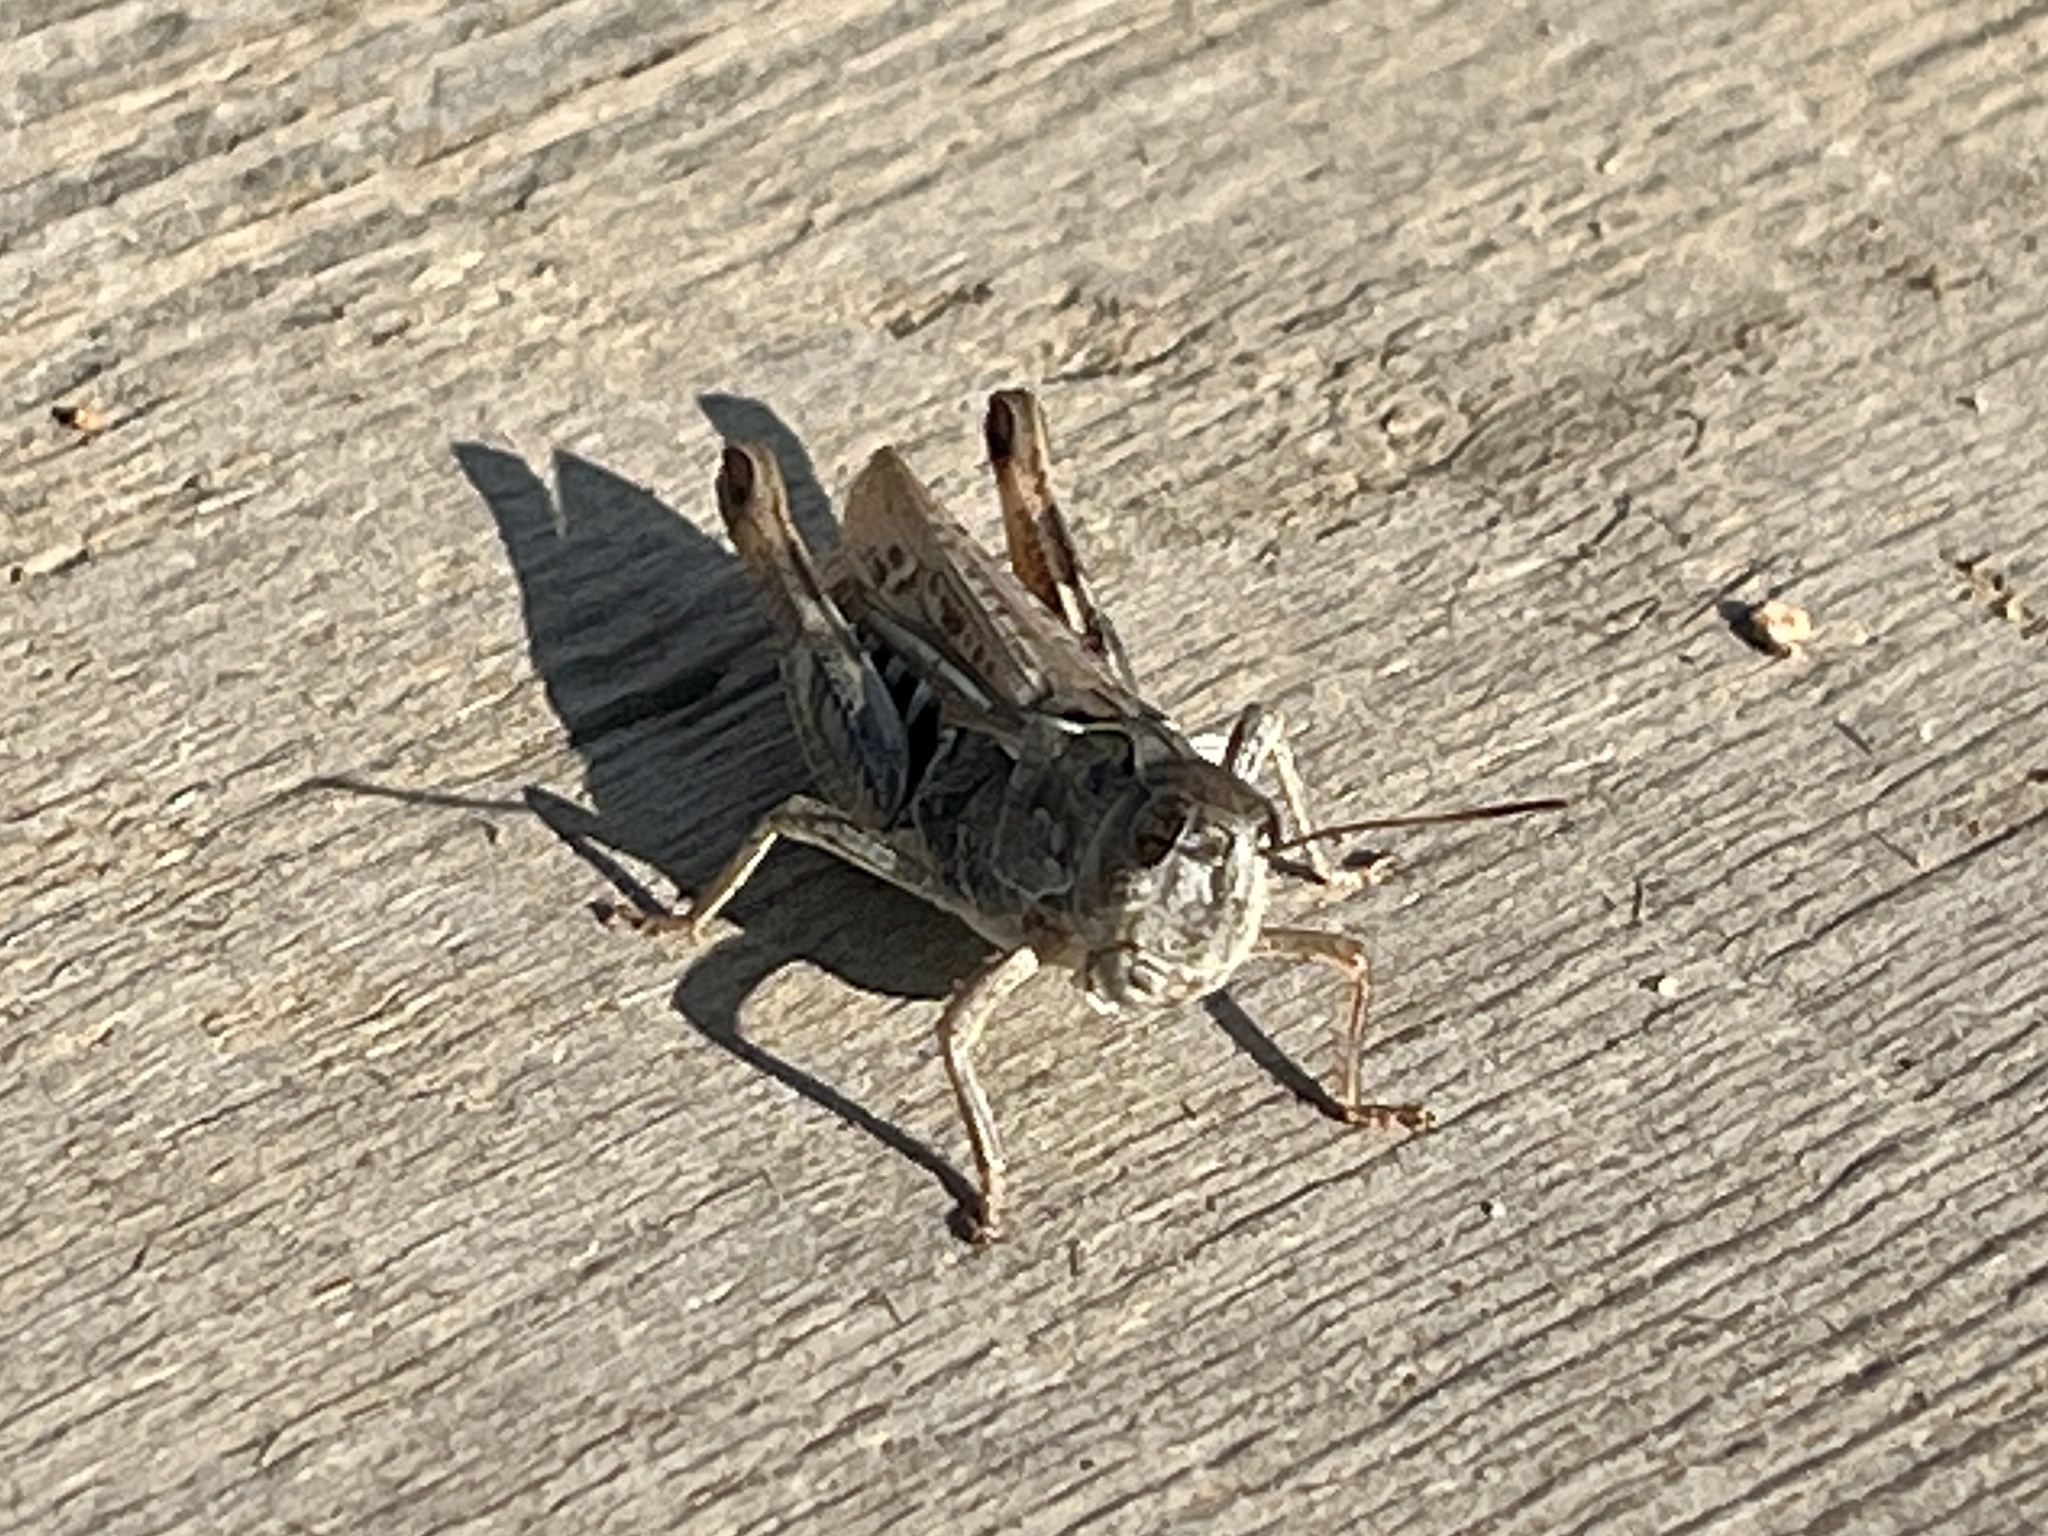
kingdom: Animalia
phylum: Arthropoda
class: Insecta
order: Orthoptera
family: Acrididae
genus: Gomphocerus
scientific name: Gomphocerus sibiricus
